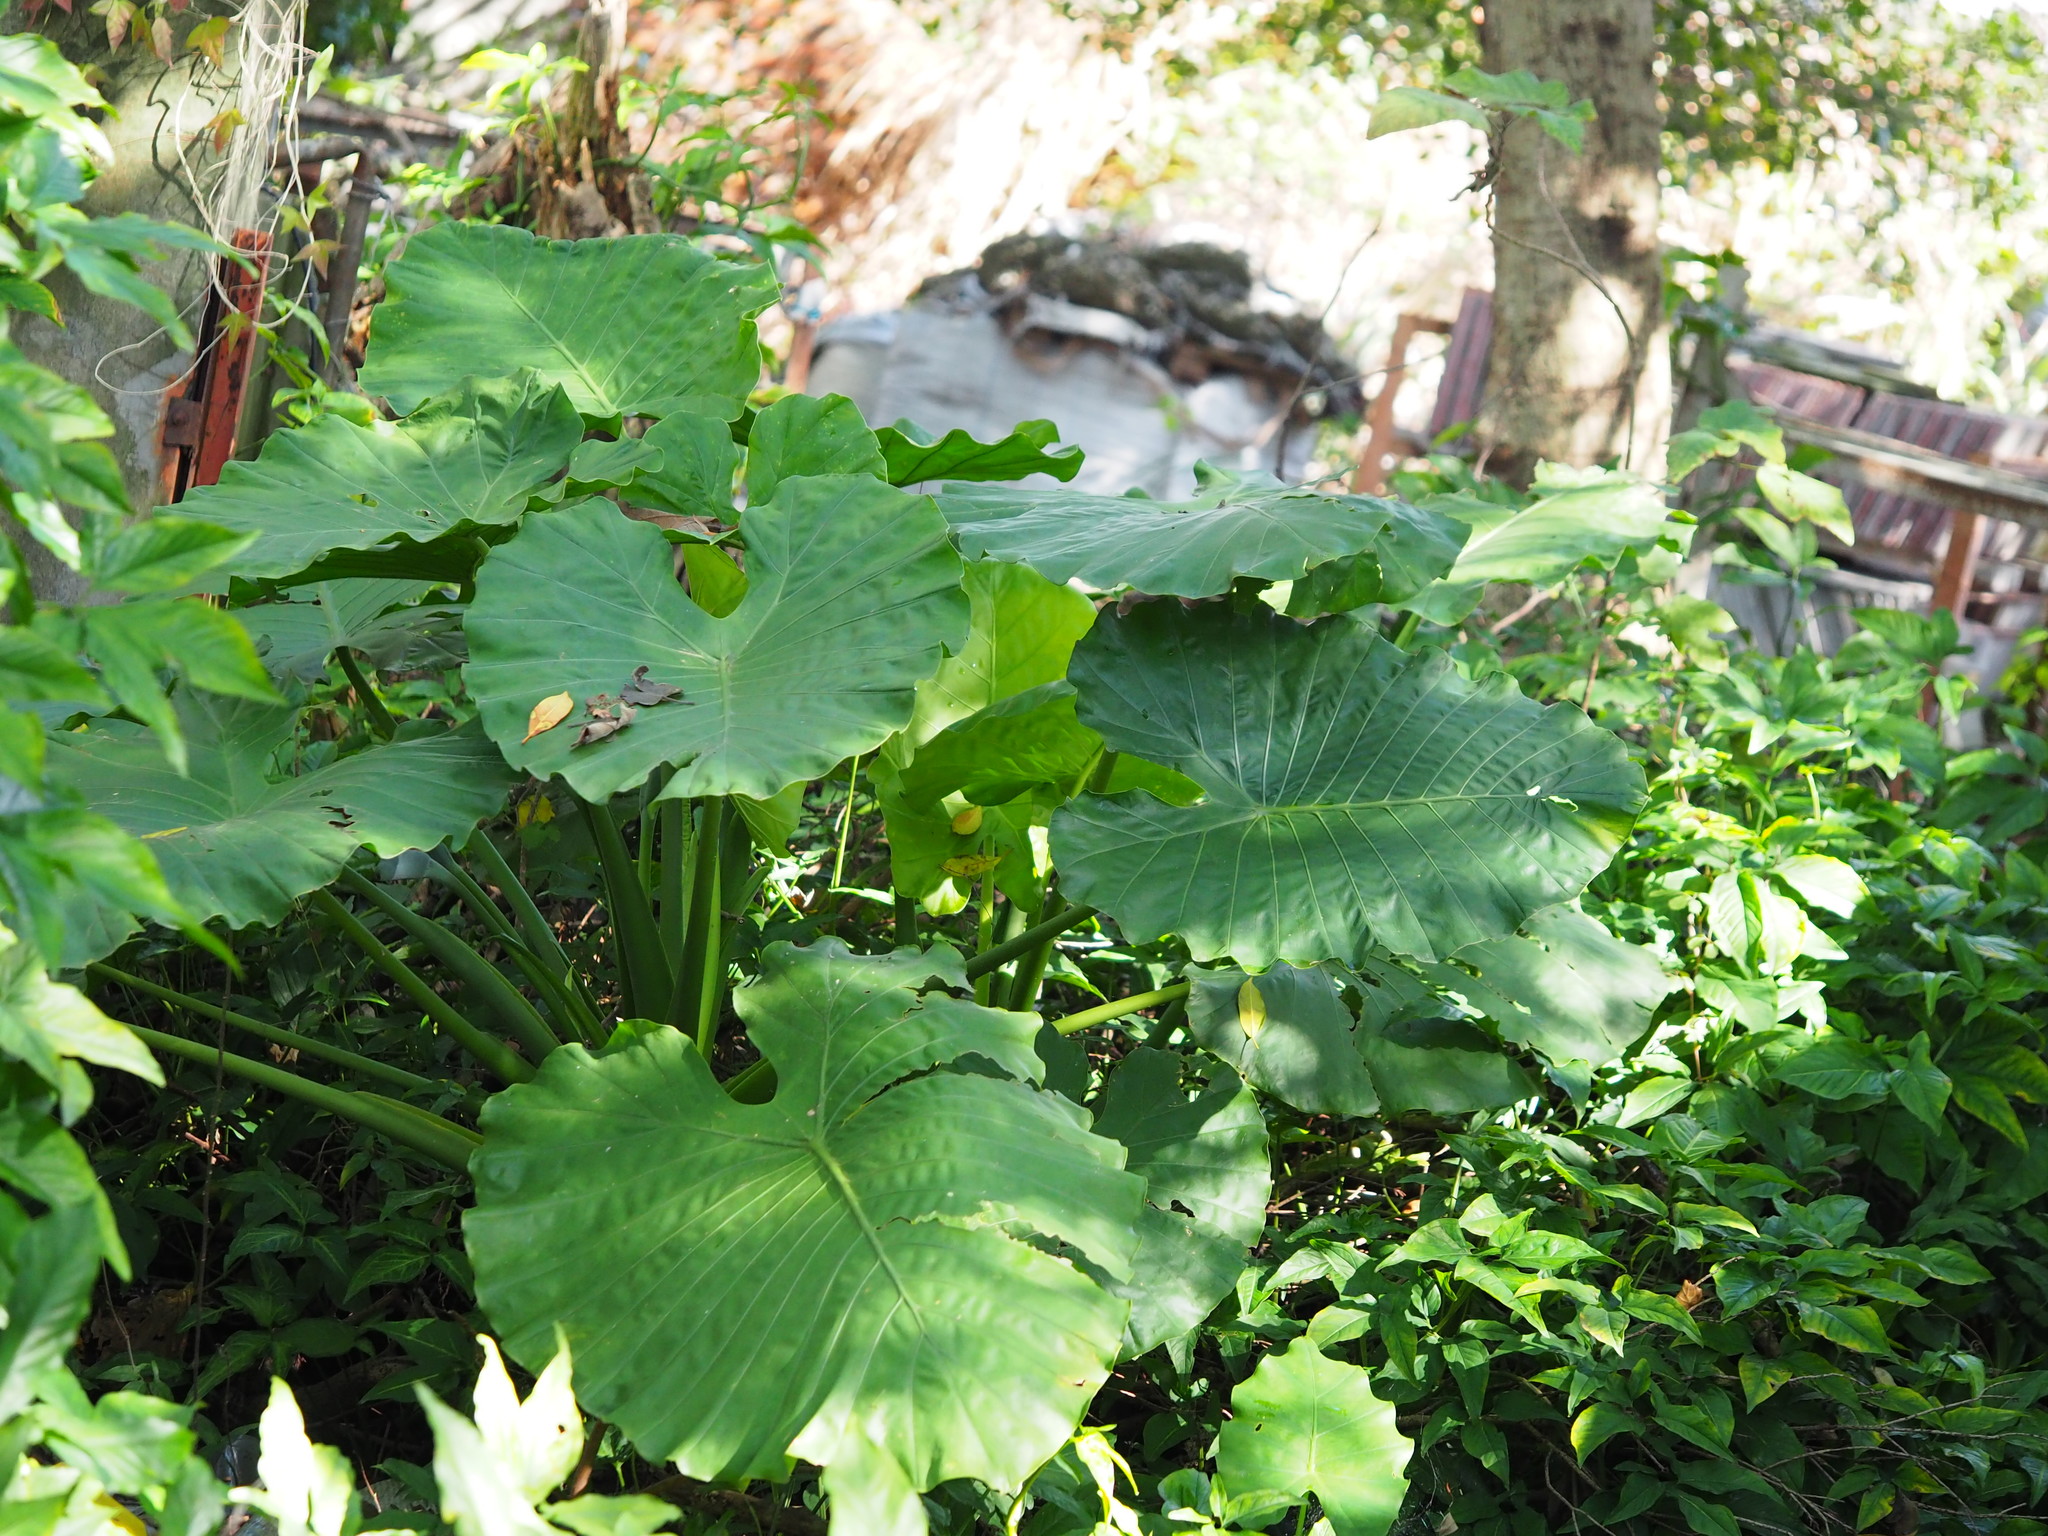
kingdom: Plantae
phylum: Tracheophyta
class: Liliopsida
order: Alismatales
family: Araceae
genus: Alocasia
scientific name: Alocasia odora
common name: Asian taro
